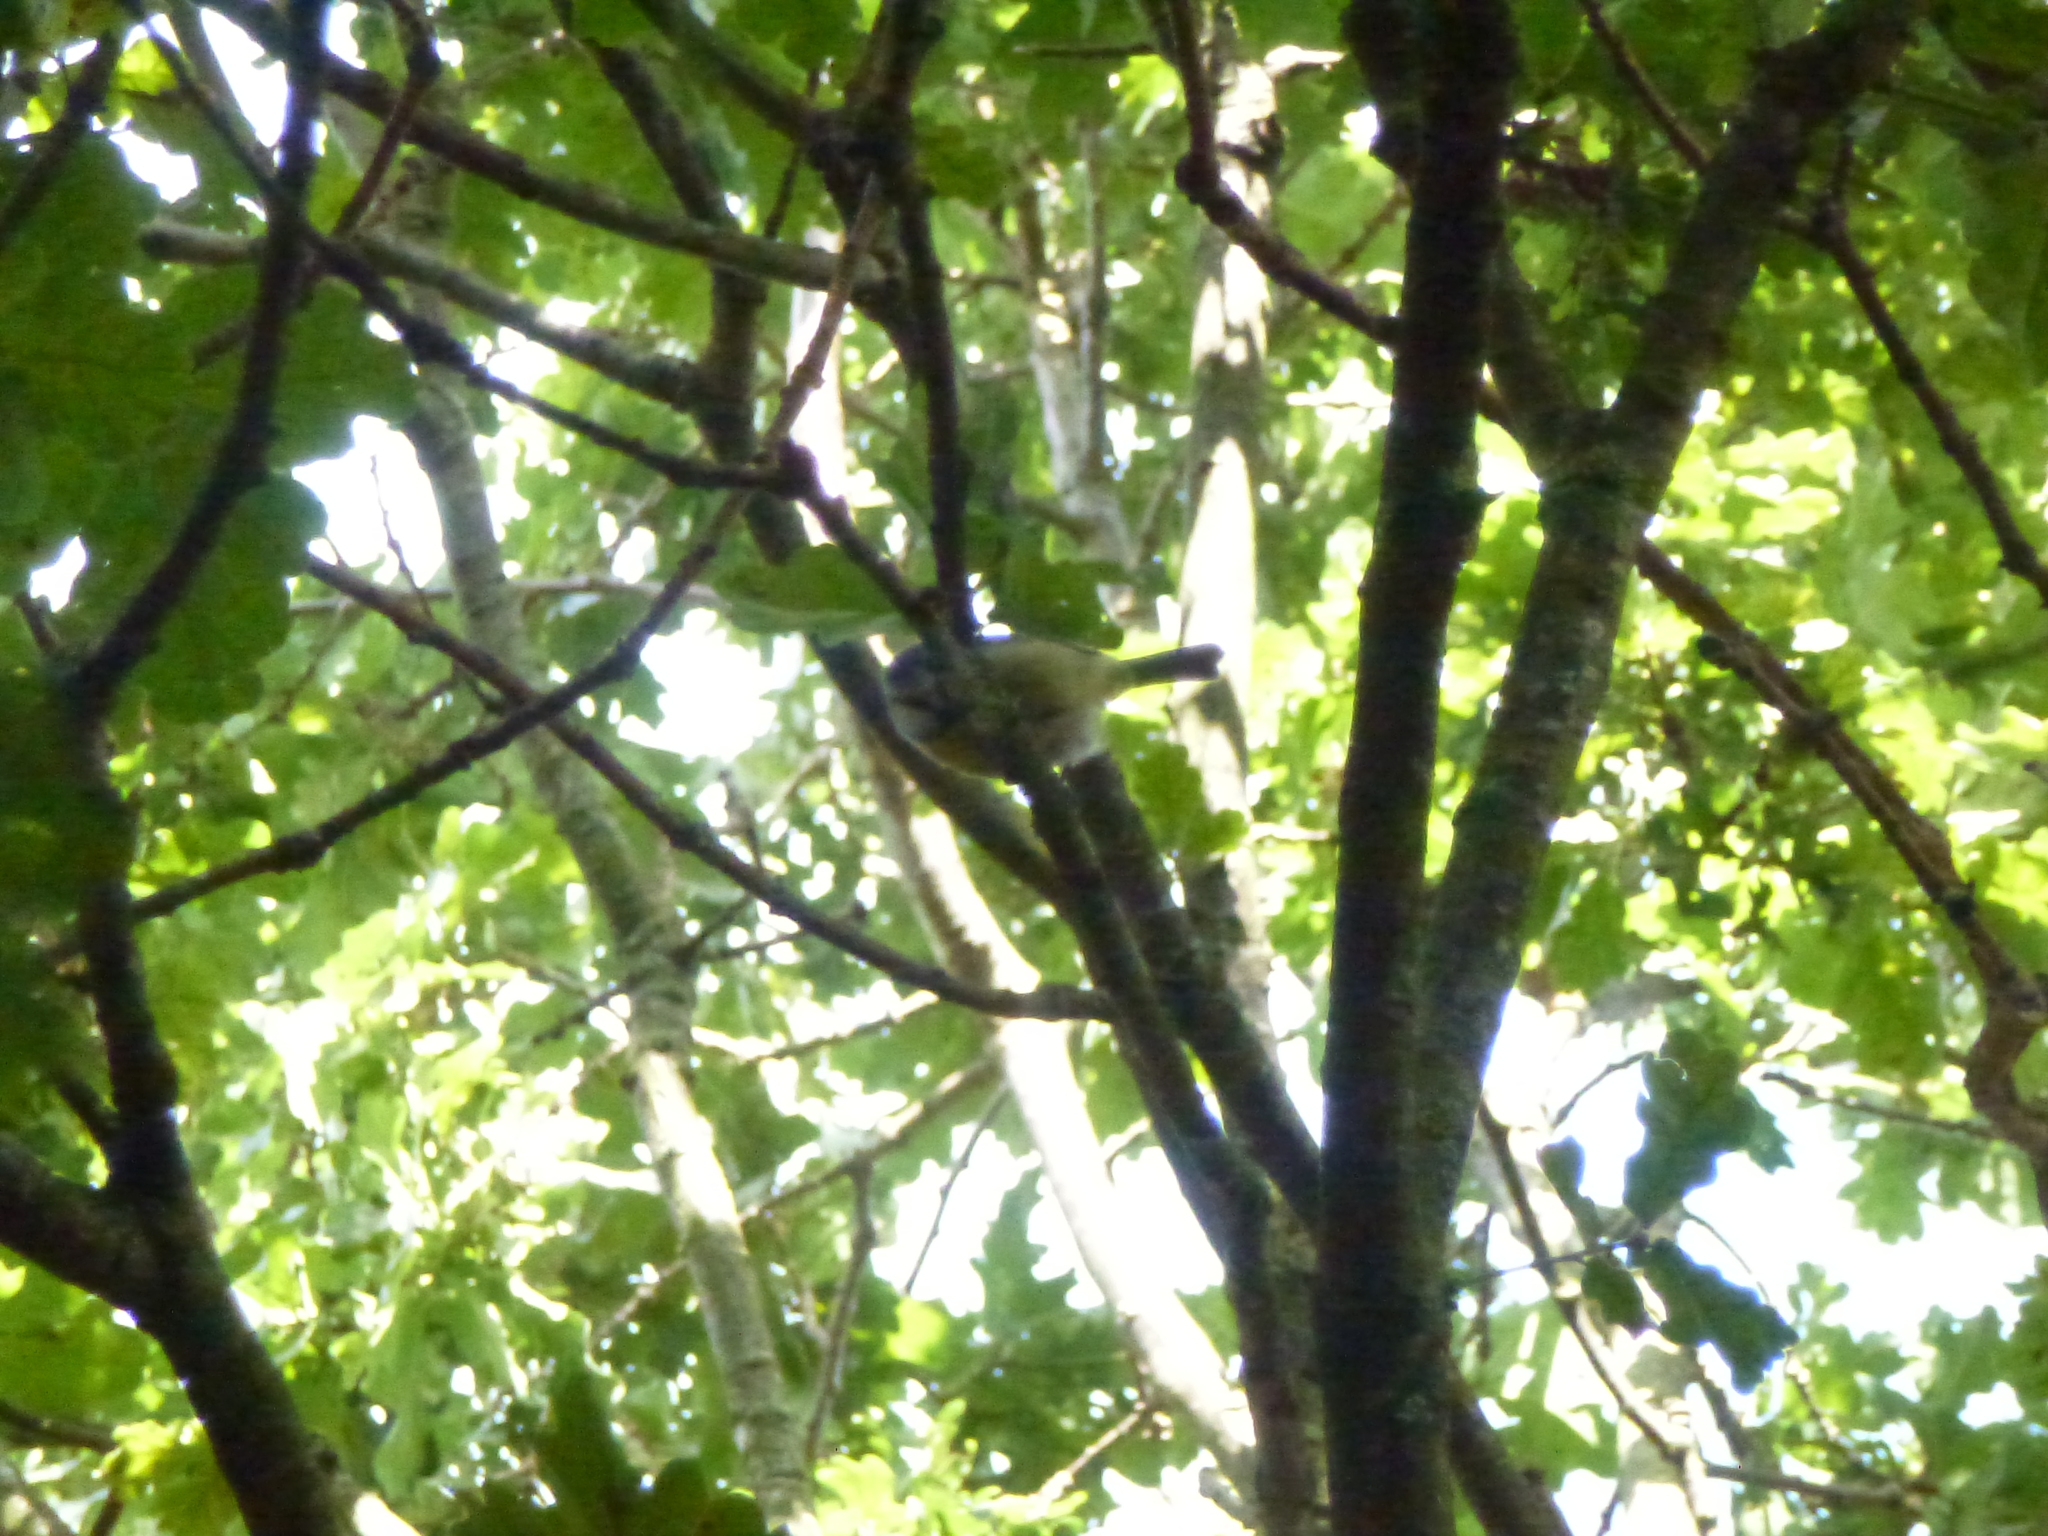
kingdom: Animalia
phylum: Chordata
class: Aves
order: Passeriformes
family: Paridae
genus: Cyanistes
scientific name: Cyanistes caeruleus
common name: Eurasian blue tit
